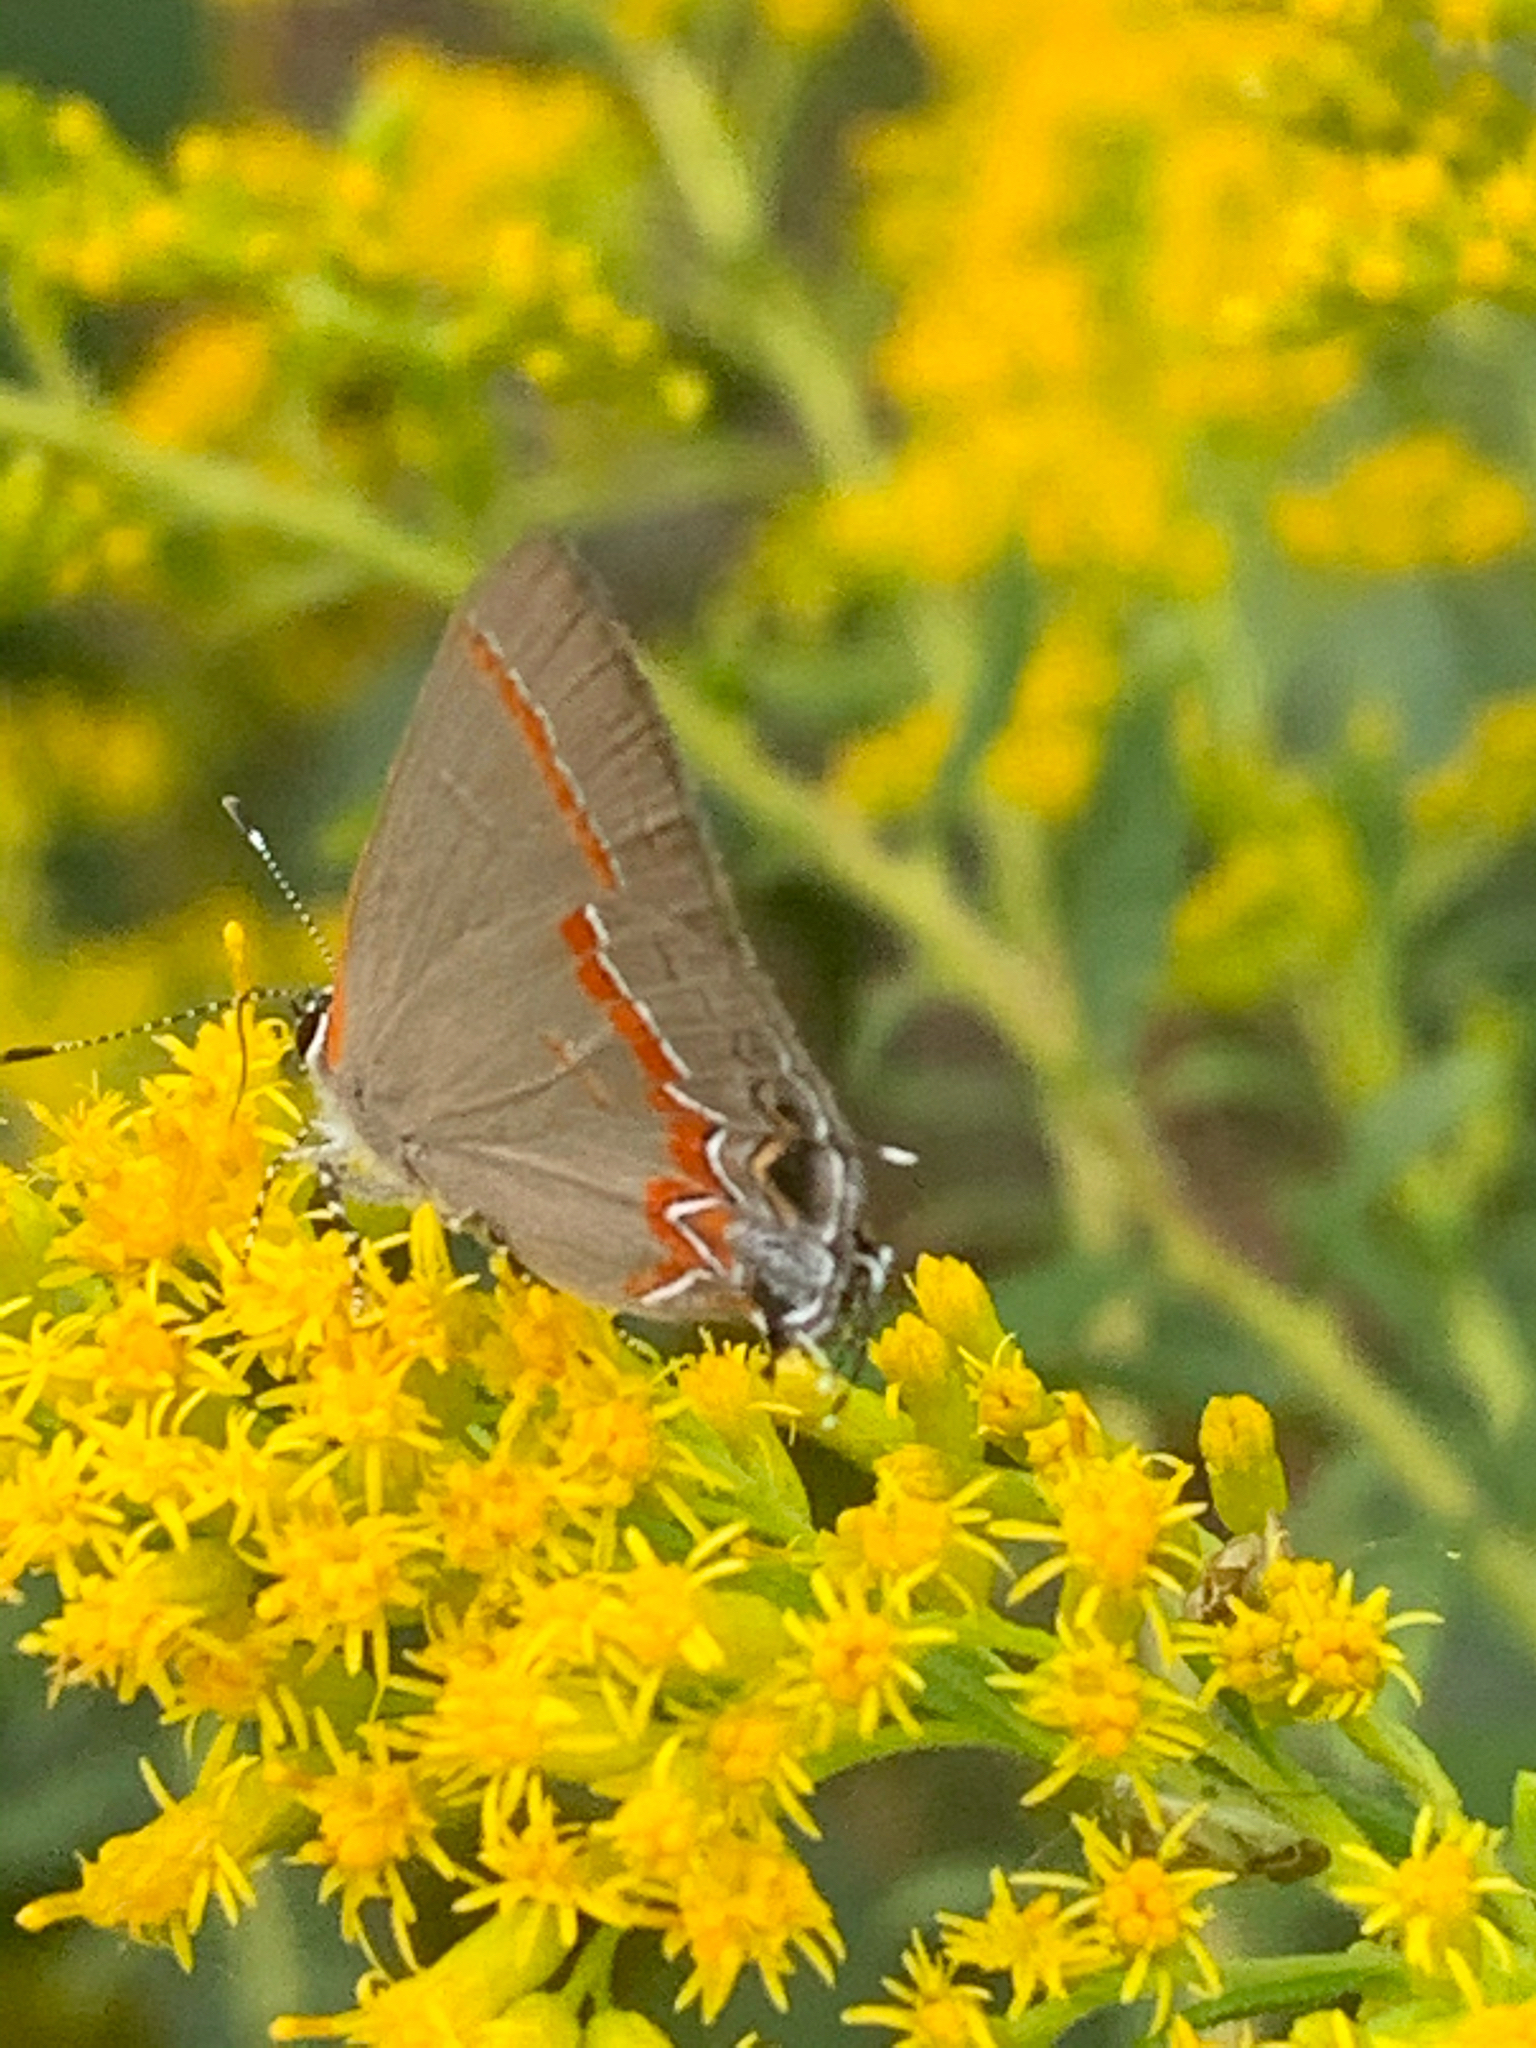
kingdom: Animalia
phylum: Arthropoda
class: Insecta
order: Lepidoptera
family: Lycaenidae
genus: Calycopis
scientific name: Calycopis cecrops
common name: Red-banded hairstreak
